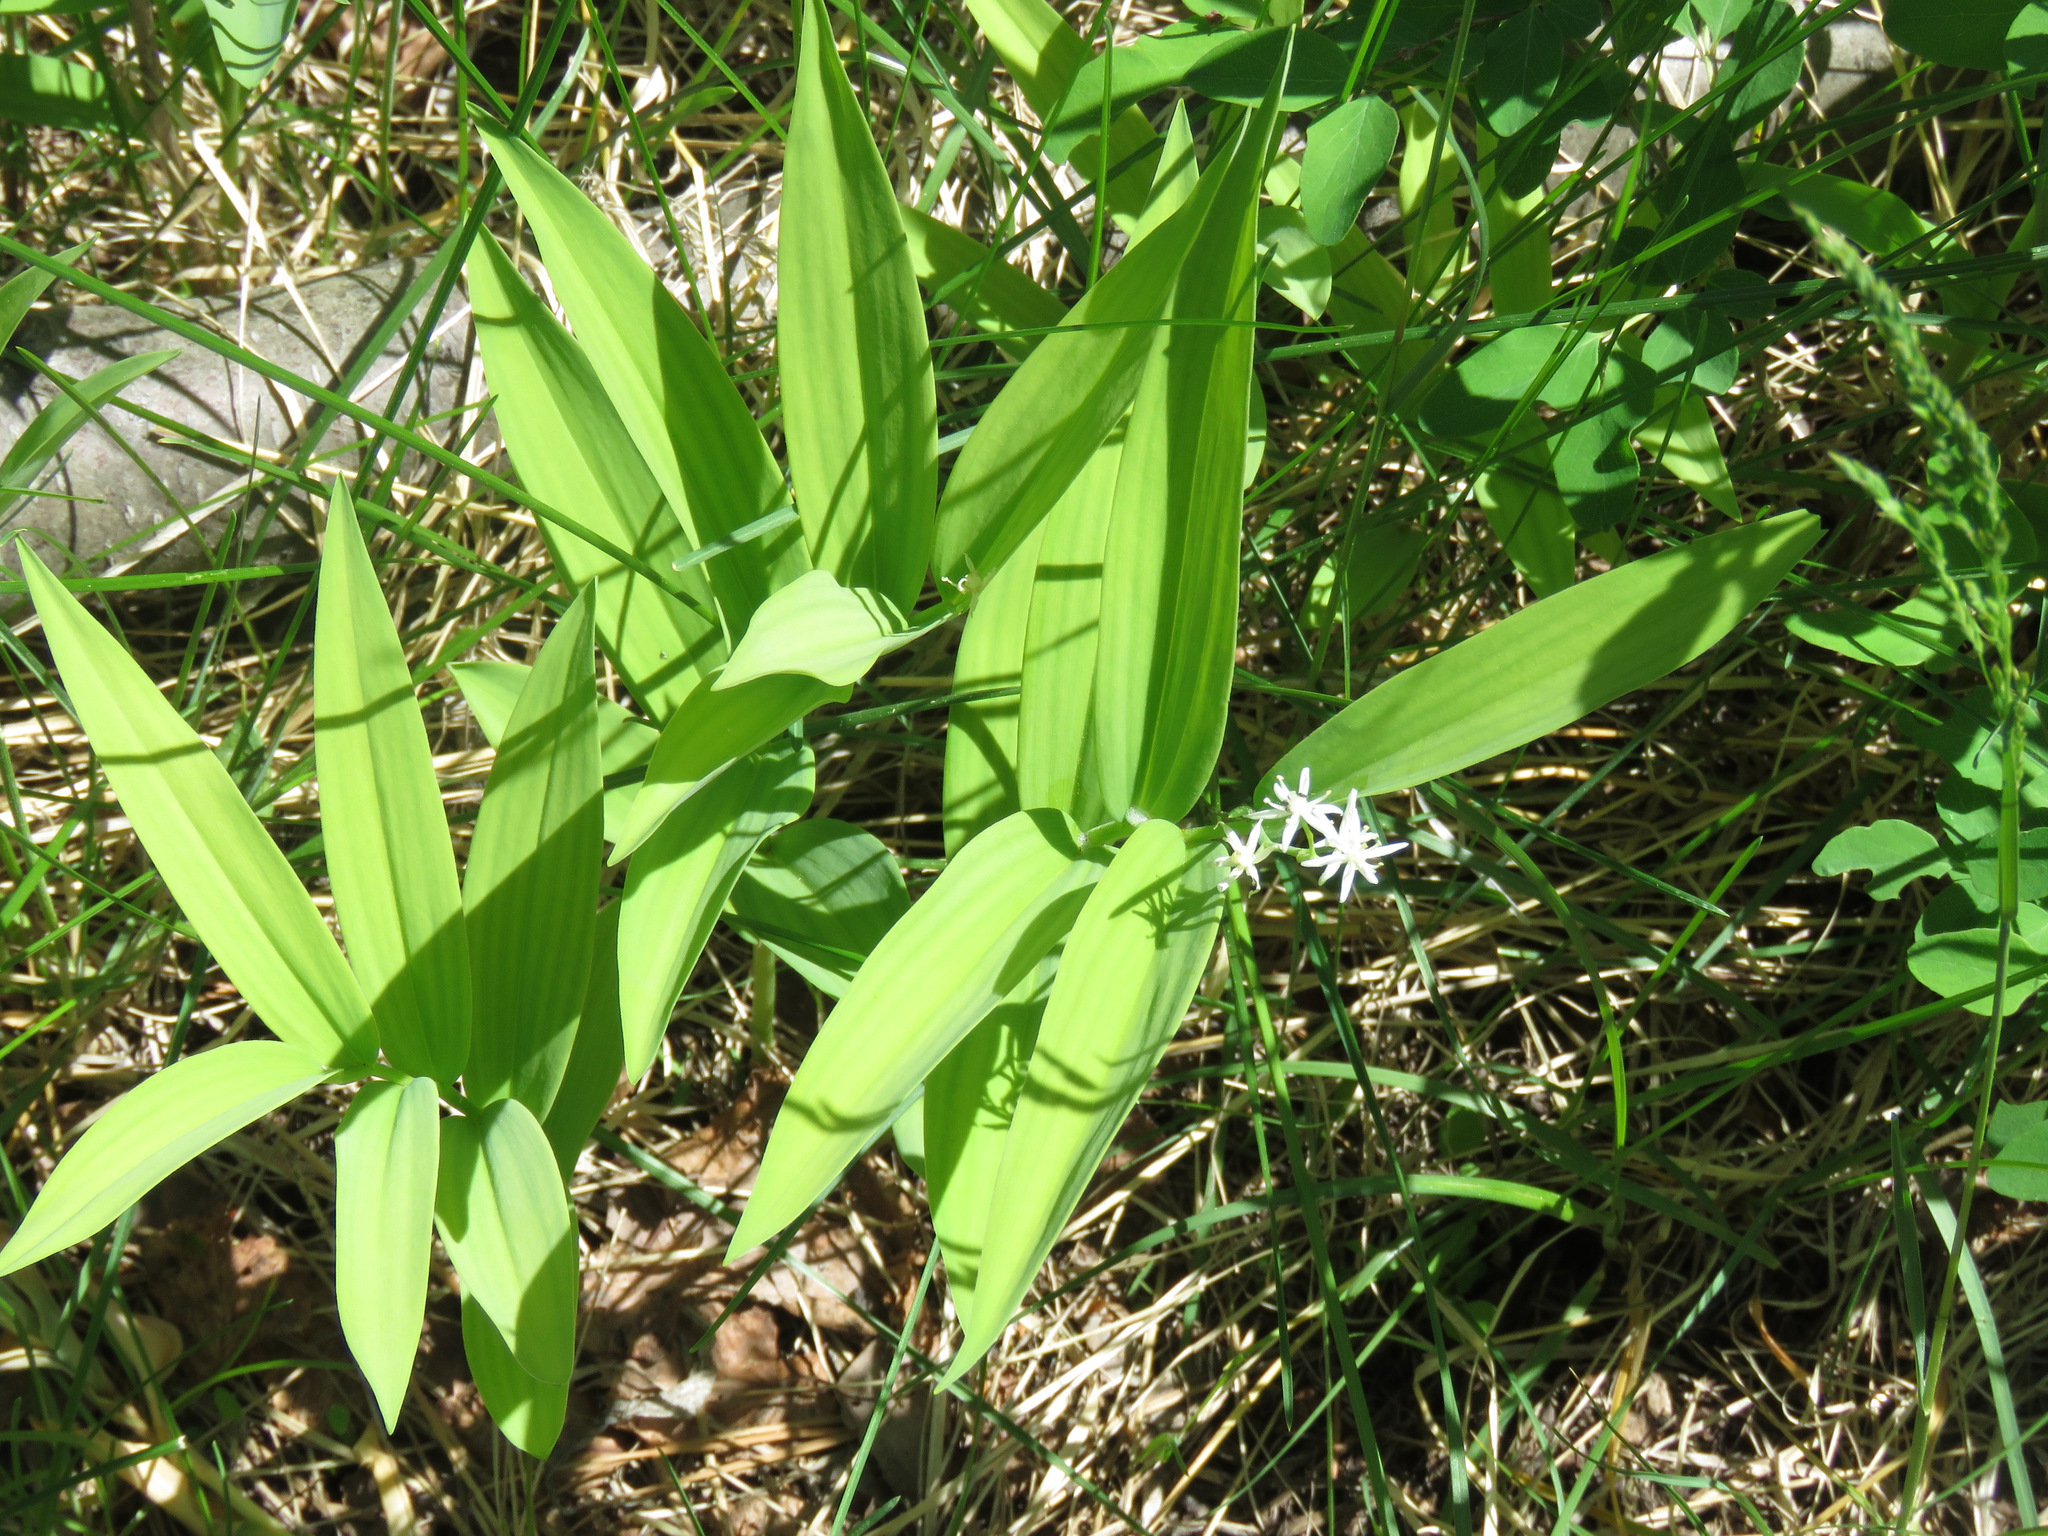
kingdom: Plantae
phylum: Tracheophyta
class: Liliopsida
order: Asparagales
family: Asparagaceae
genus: Maianthemum
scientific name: Maianthemum stellatum
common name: Little false solomon's seal
